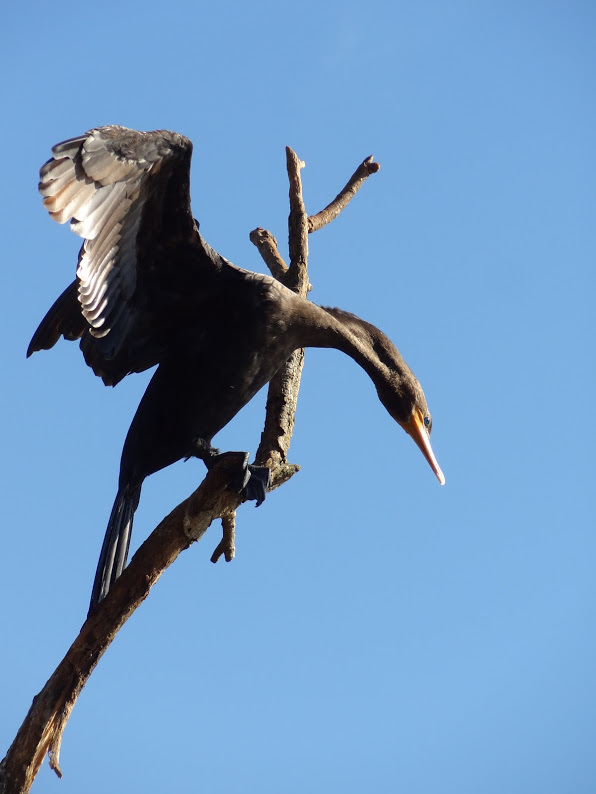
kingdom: Animalia
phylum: Chordata
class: Aves
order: Suliformes
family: Phalacrocoracidae
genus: Phalacrocorax
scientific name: Phalacrocorax brasilianus
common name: Neotropic cormorant
